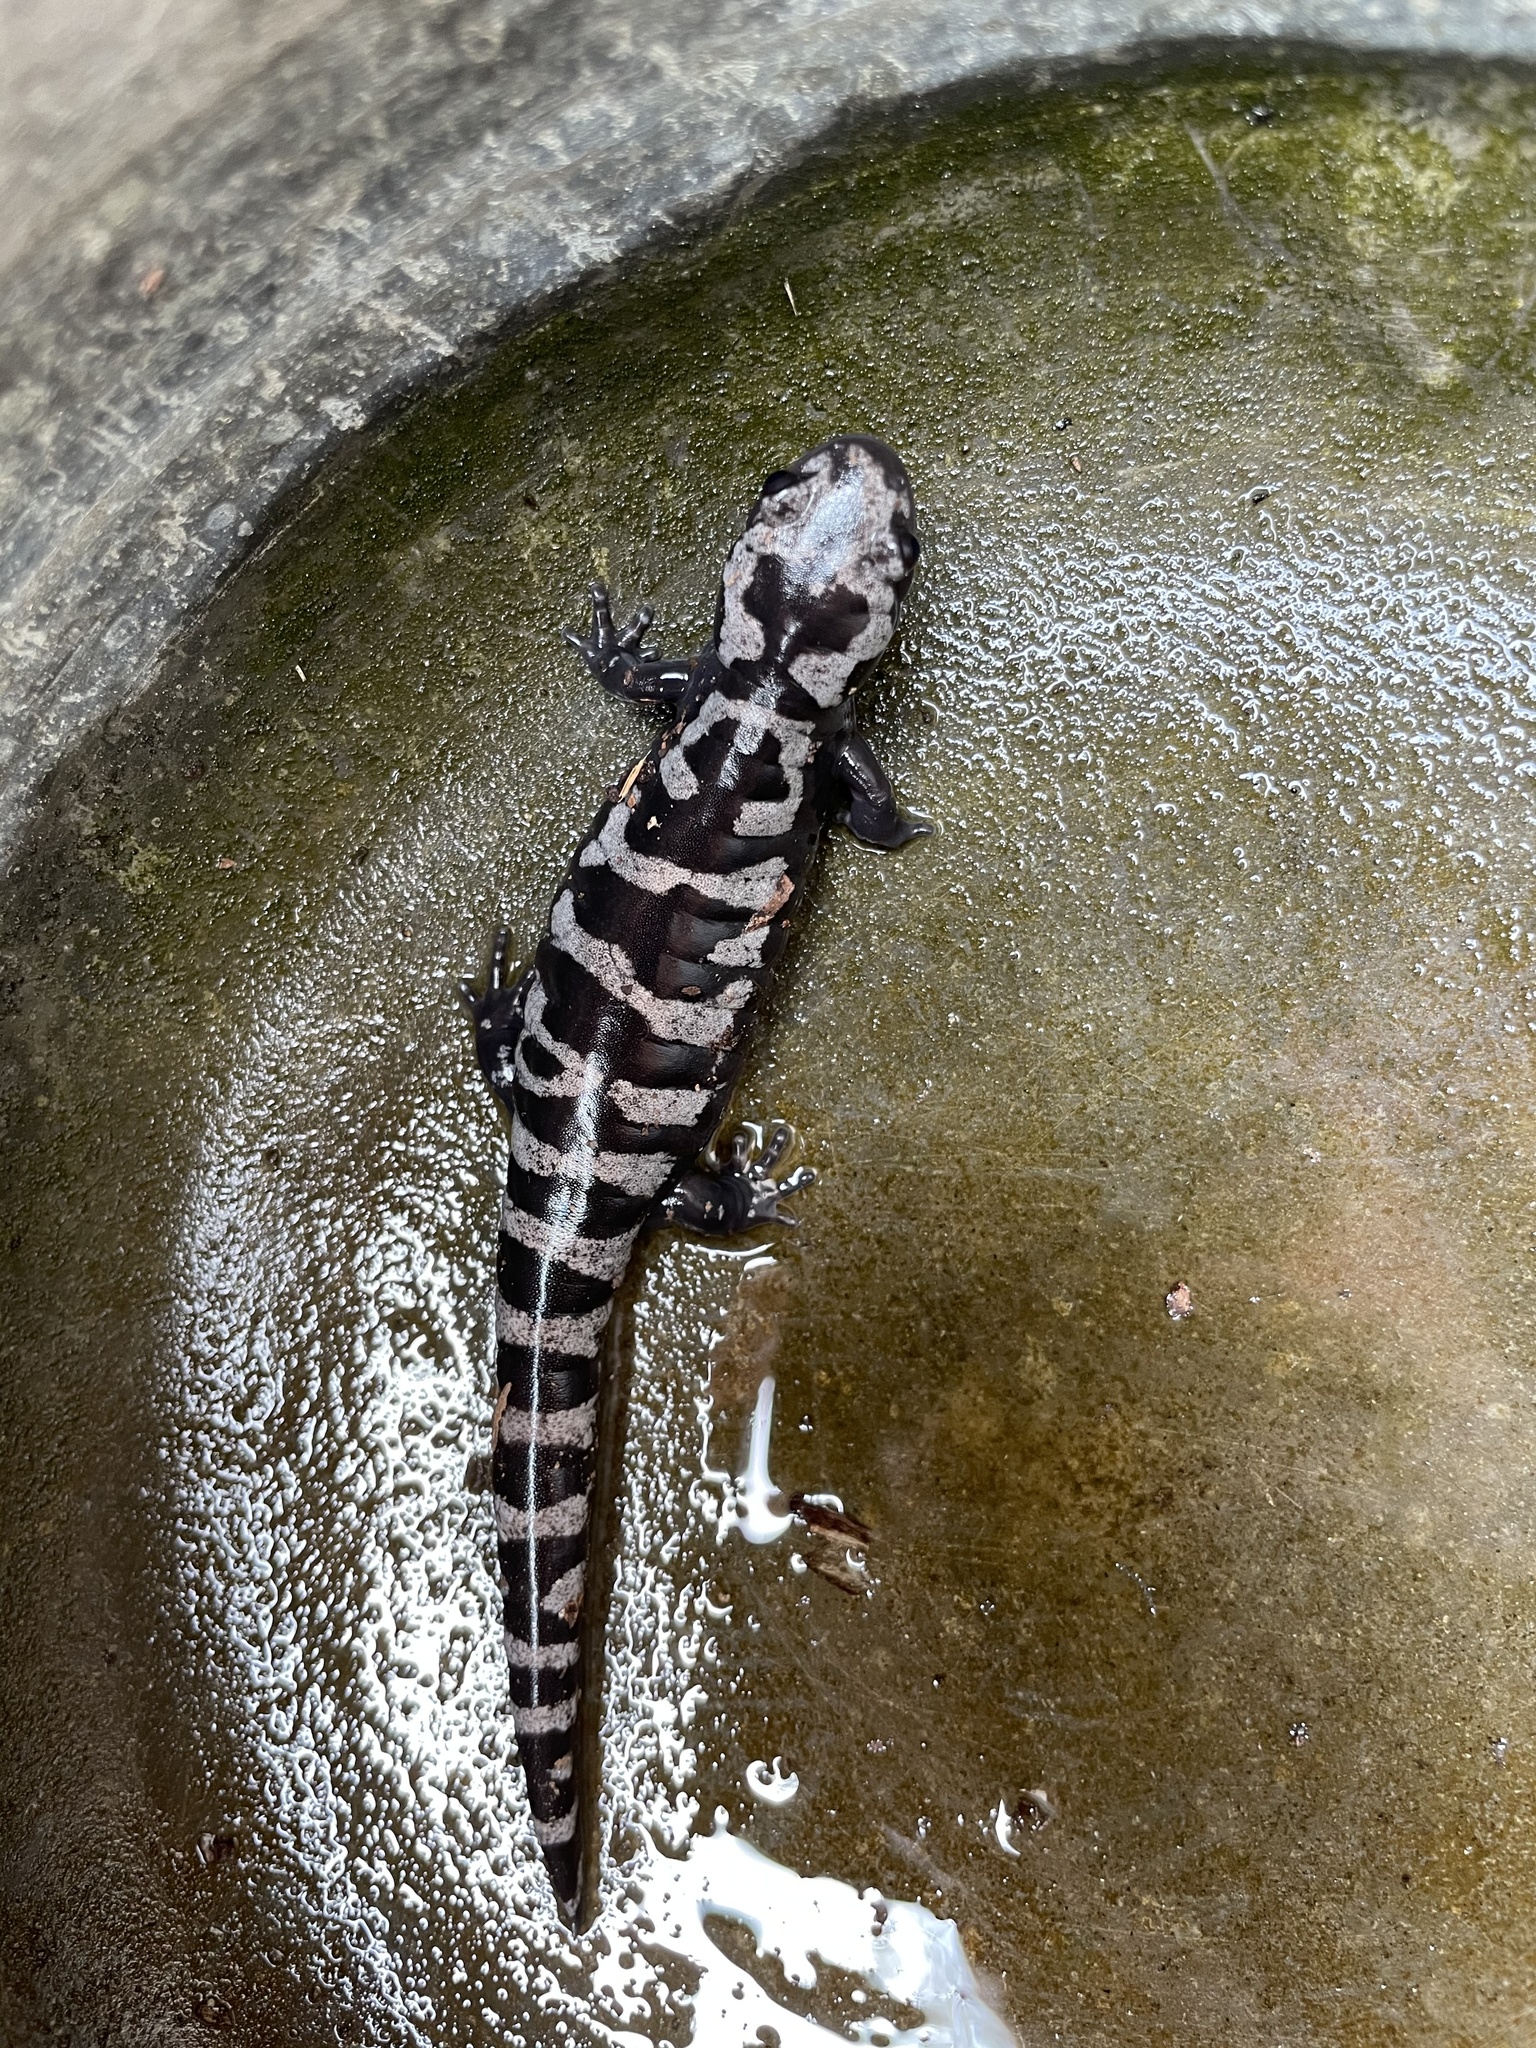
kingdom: Animalia
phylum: Chordata
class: Amphibia
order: Caudata
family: Ambystomatidae
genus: Ambystoma
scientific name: Ambystoma opacum
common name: Marbled salamander
